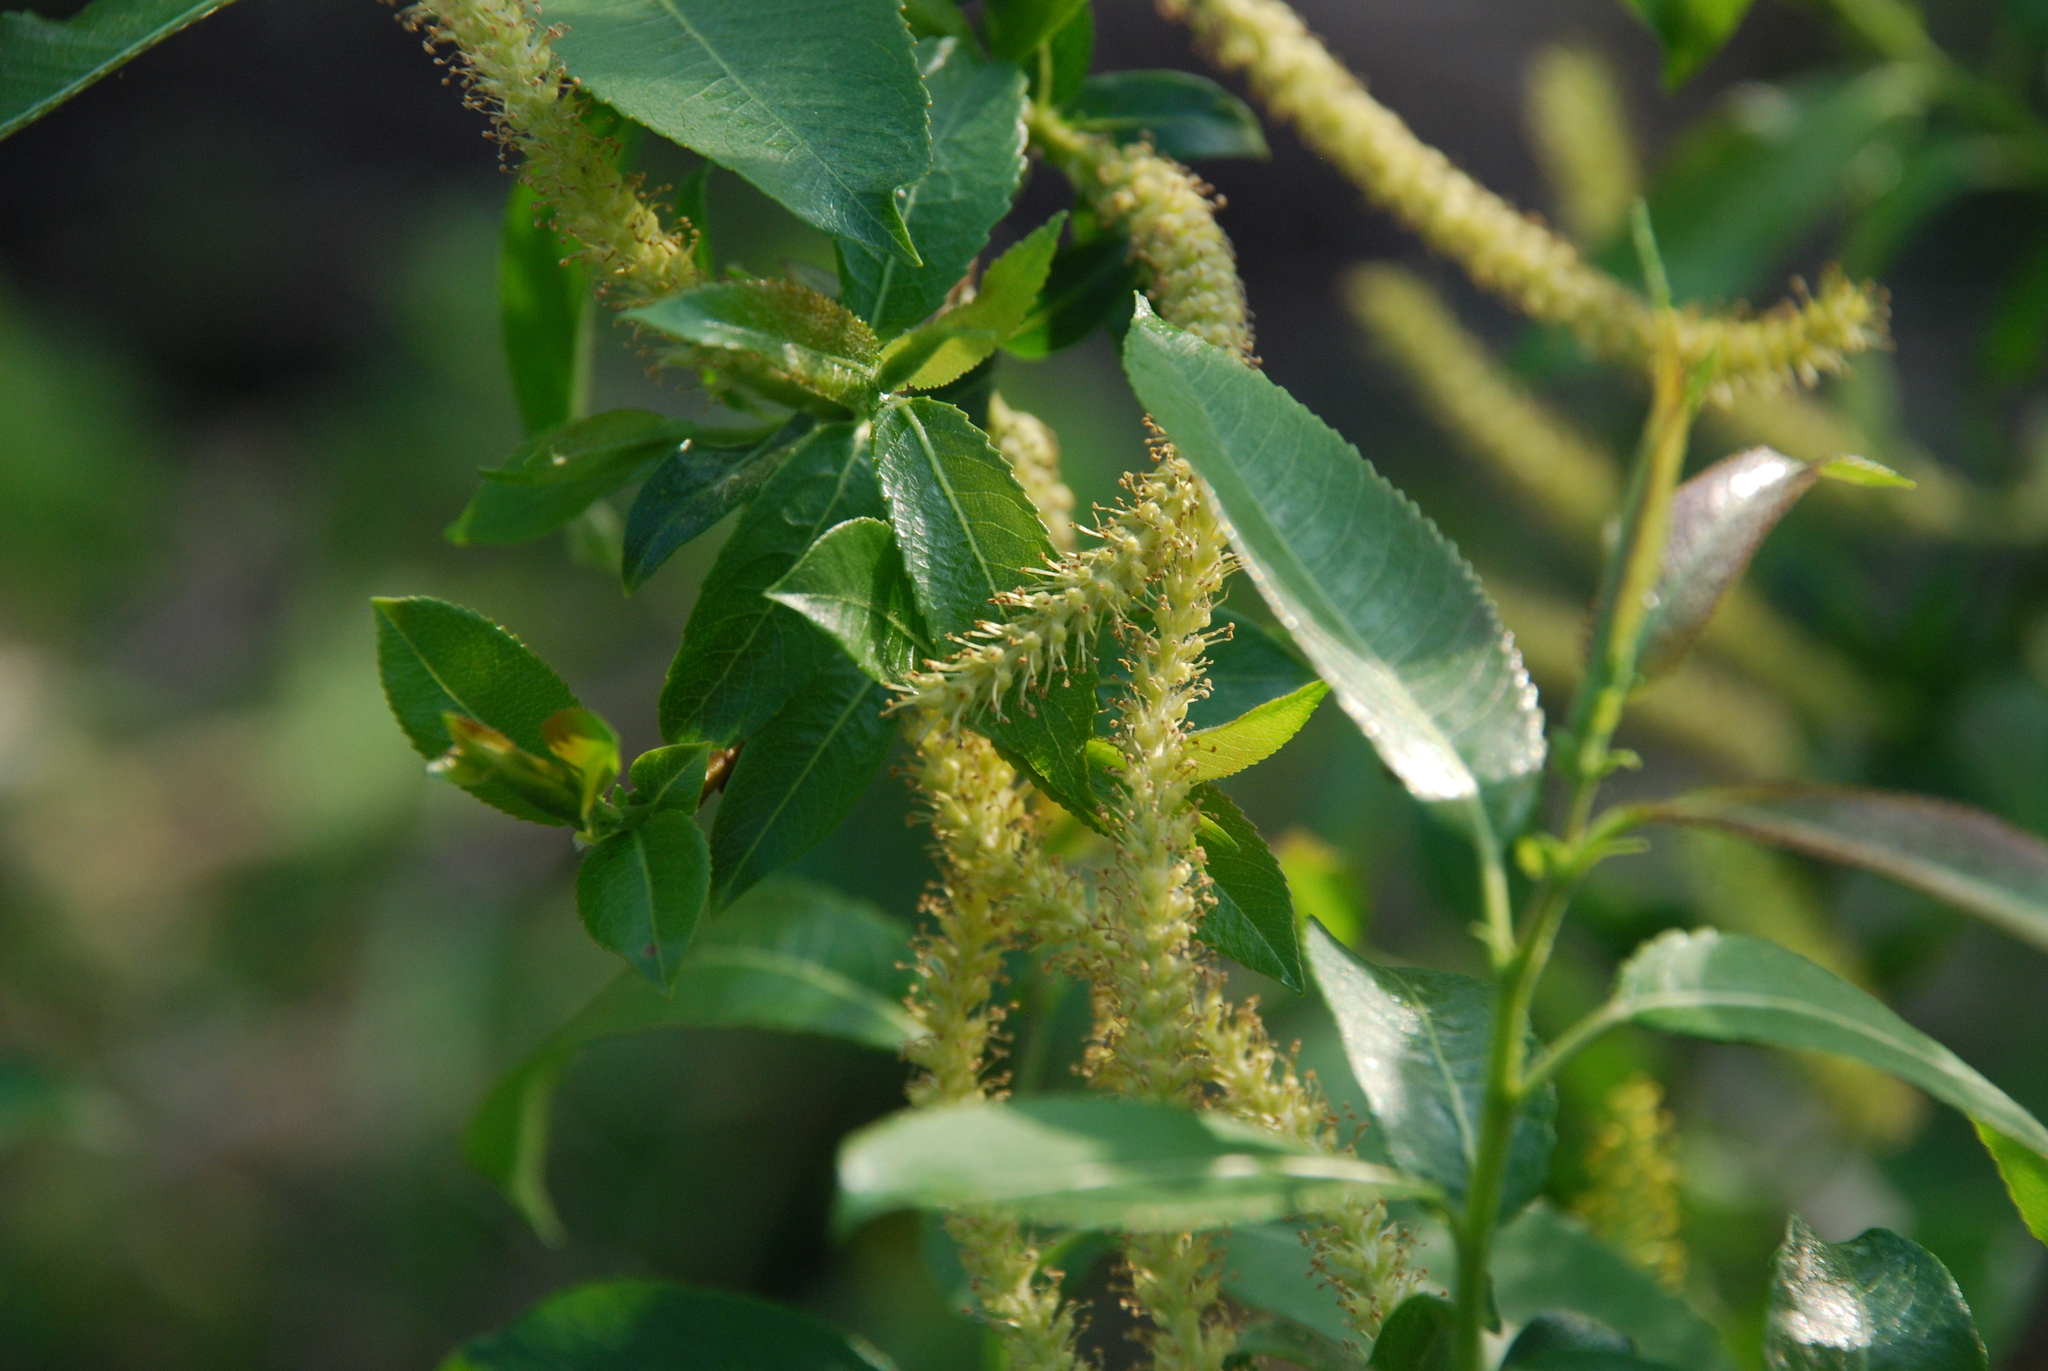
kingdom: Plantae
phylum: Tracheophyta
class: Magnoliopsida
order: Malpighiales
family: Salicaceae
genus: Salix
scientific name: Salix triandra
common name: Almond willow
